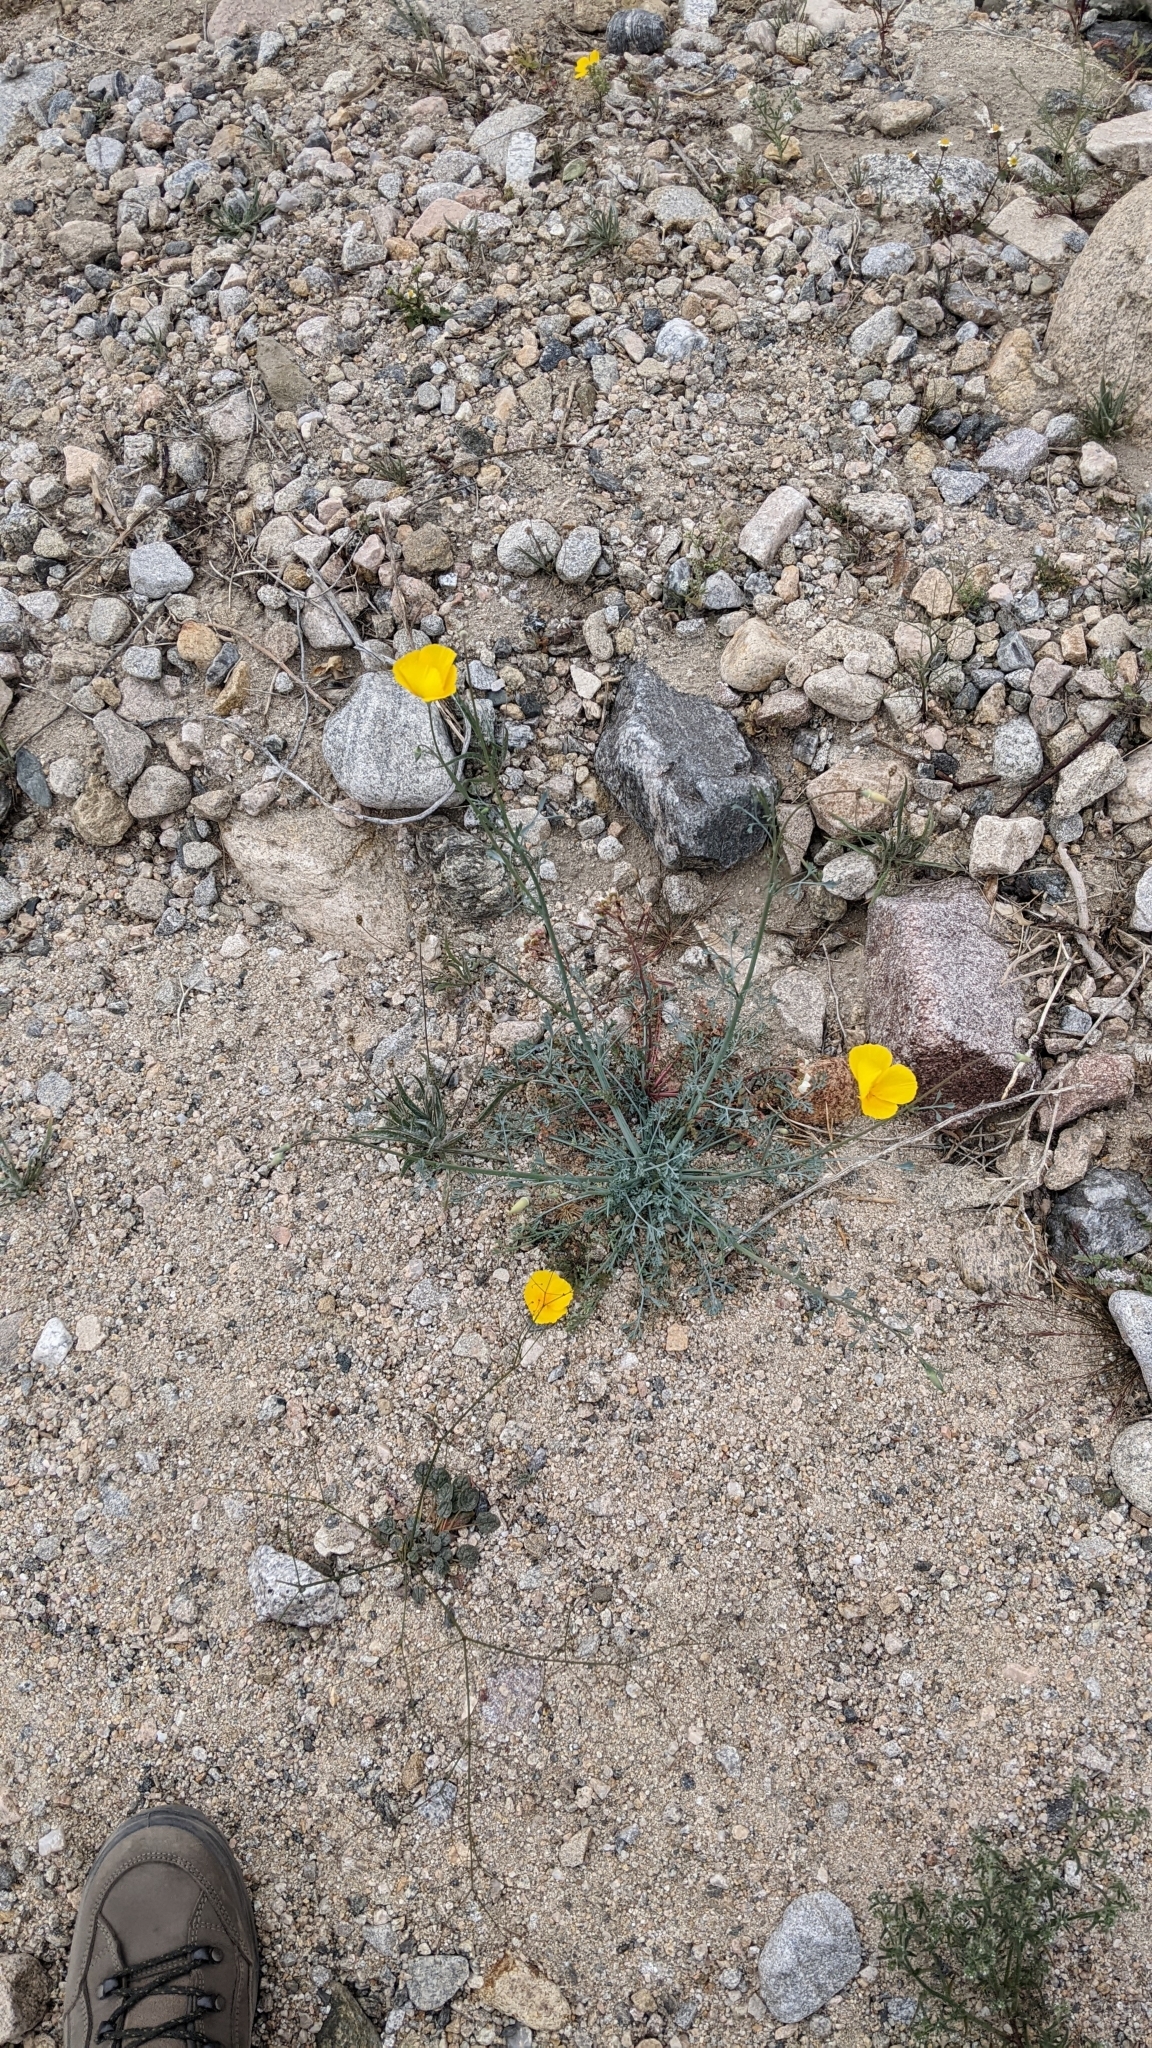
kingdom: Plantae
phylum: Tracheophyta
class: Magnoliopsida
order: Ranunculales
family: Papaveraceae
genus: Eschscholzia
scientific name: Eschscholzia papastillii
